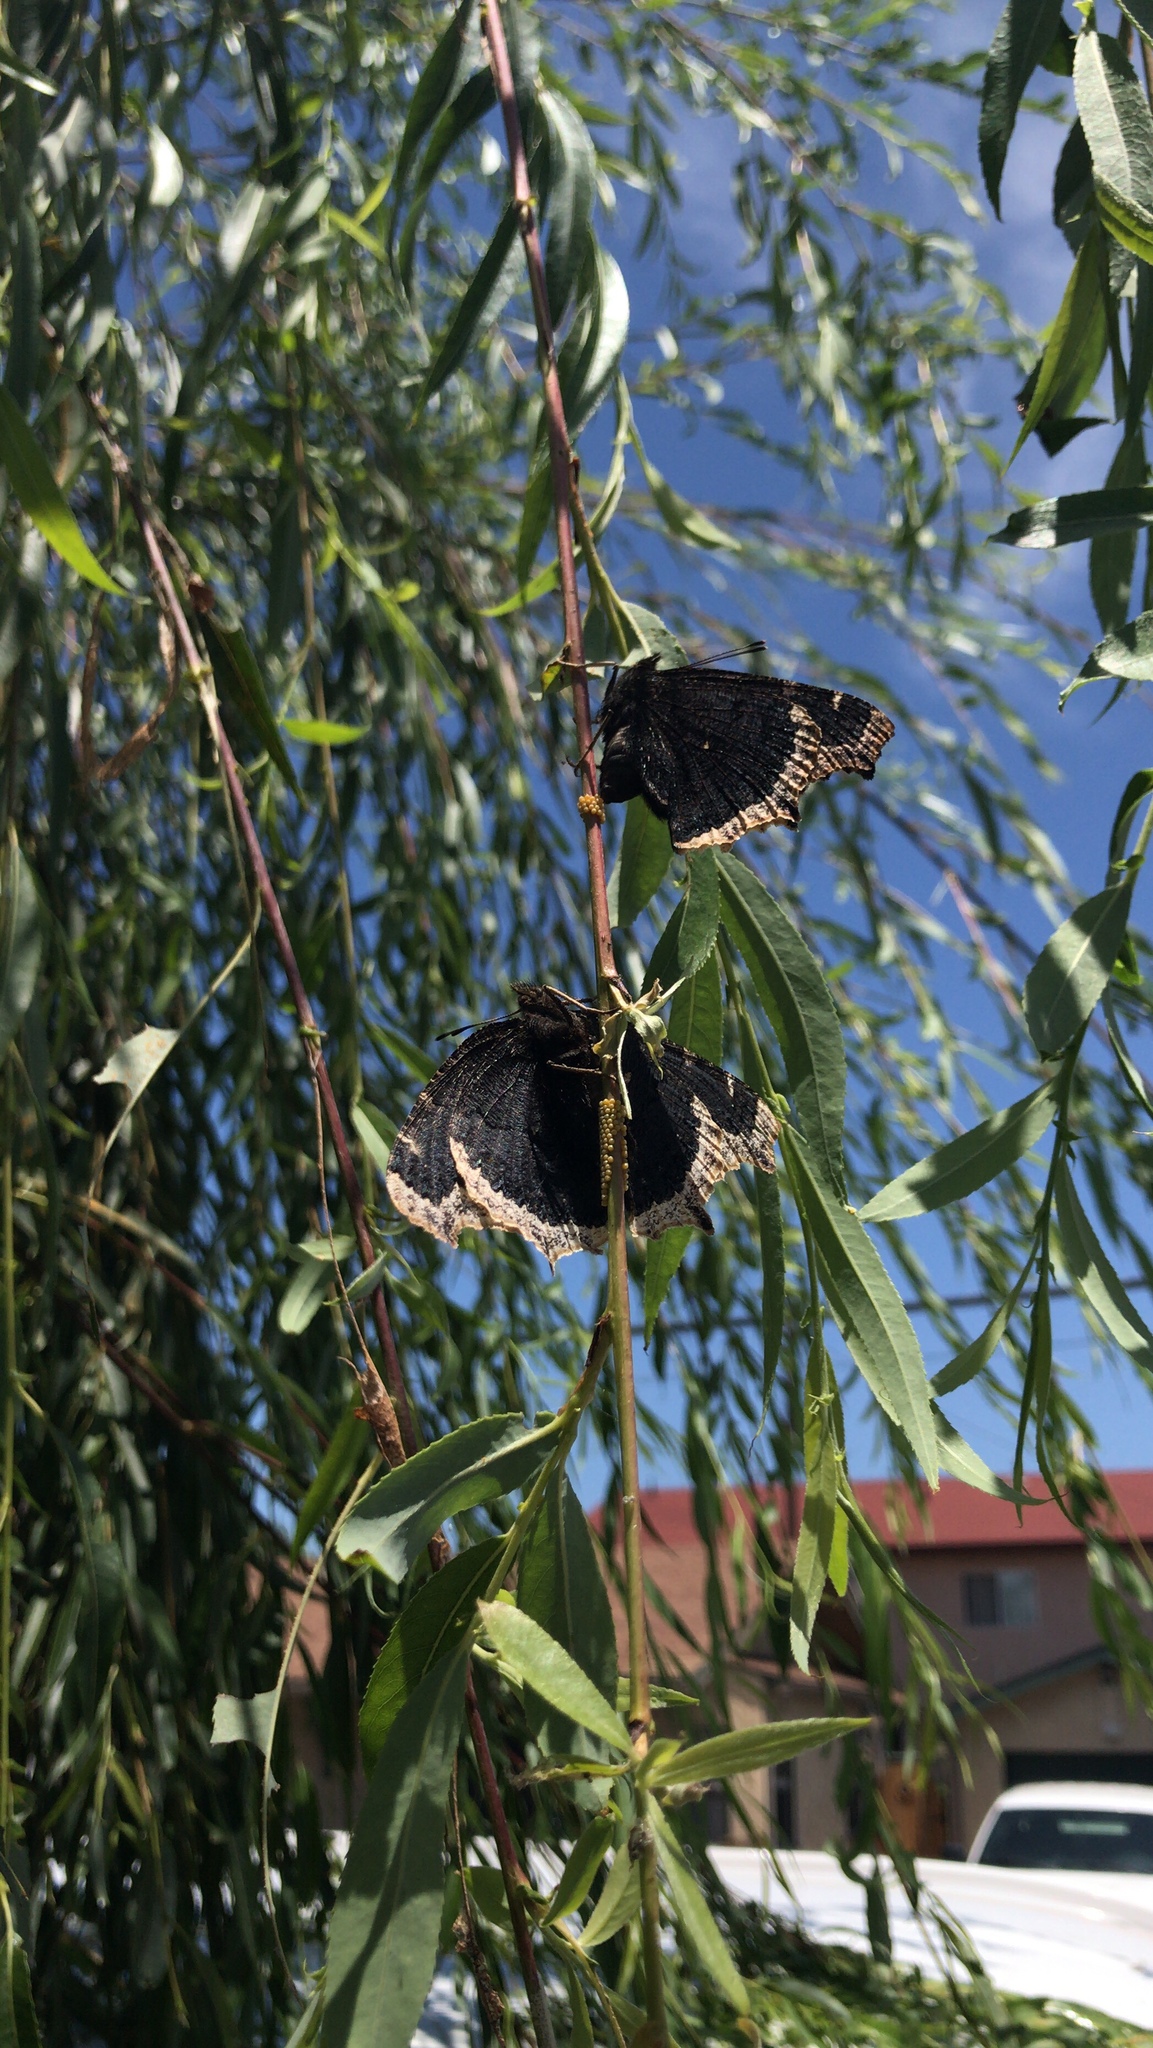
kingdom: Animalia
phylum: Arthropoda
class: Insecta
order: Lepidoptera
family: Nymphalidae
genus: Nymphalis
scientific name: Nymphalis antiopa
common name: Camberwell beauty
